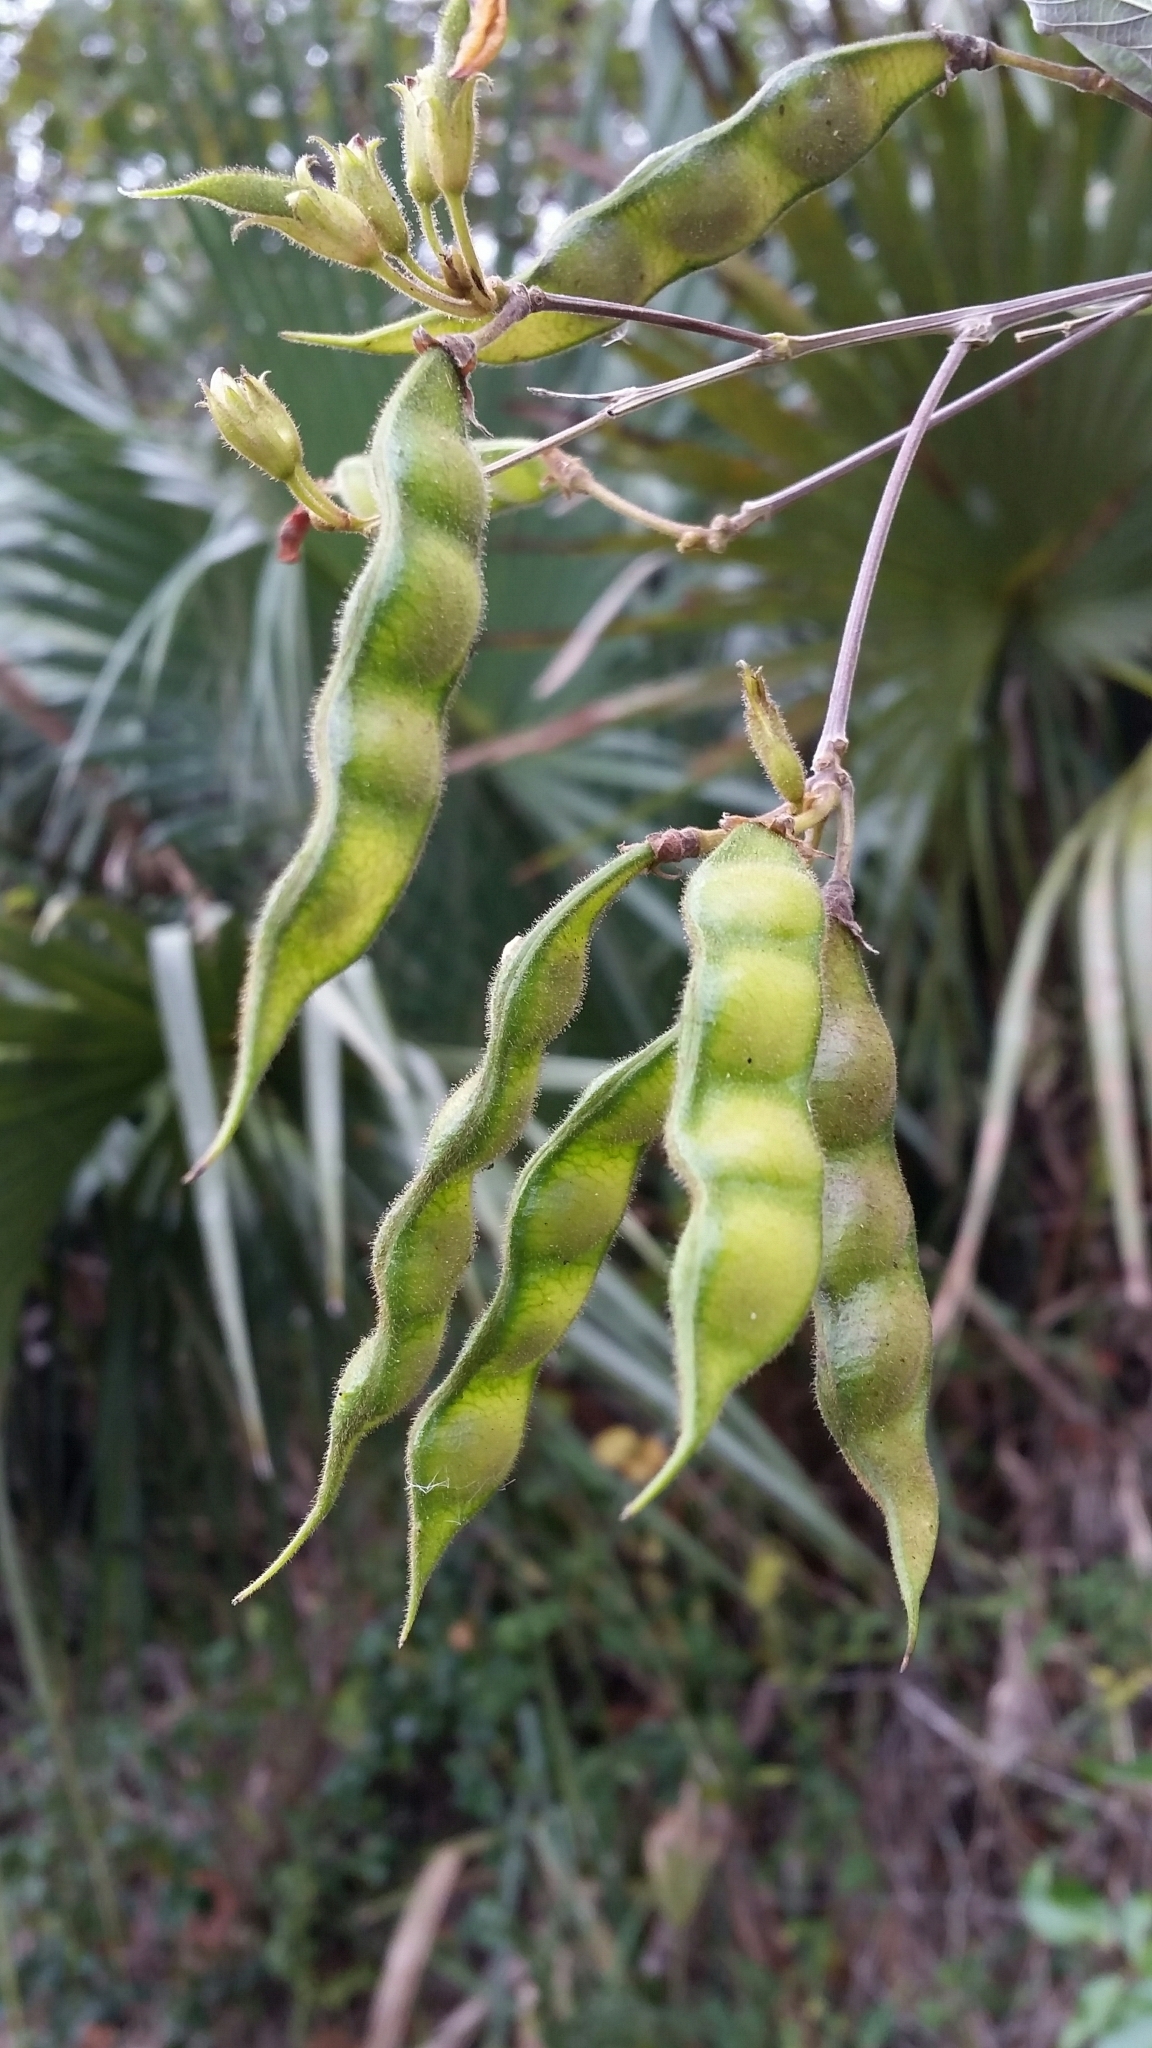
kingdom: Plantae
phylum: Tracheophyta
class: Magnoliopsida
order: Fabales
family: Fabaceae
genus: Cajanus
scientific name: Cajanus cajan
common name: Pigeonpea
